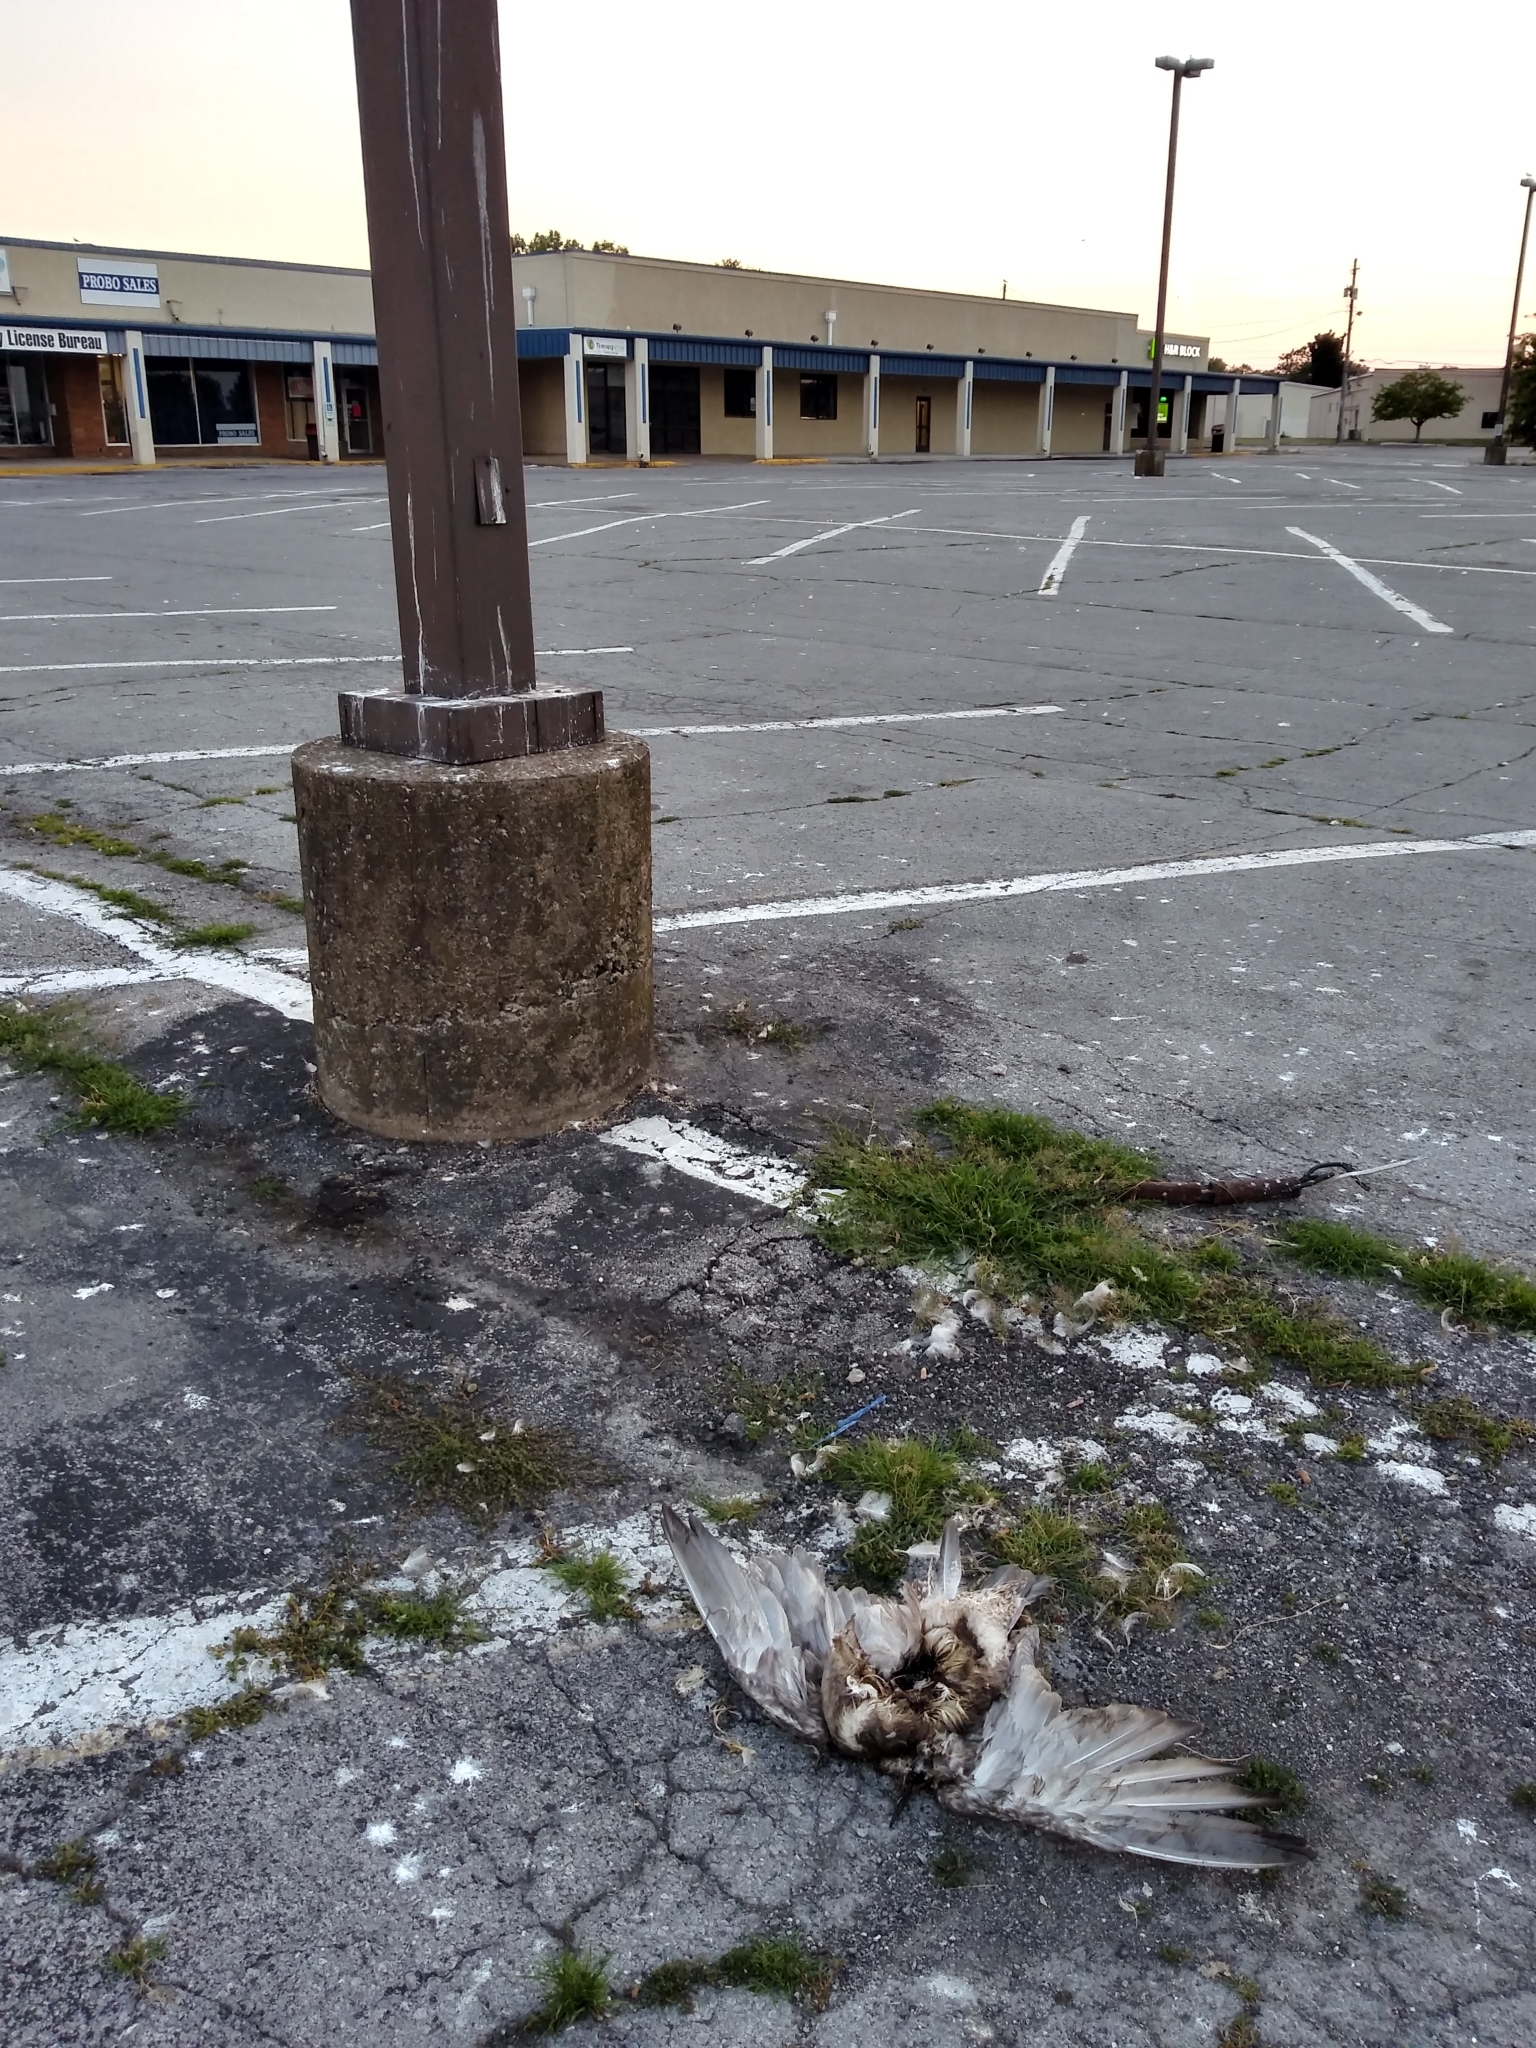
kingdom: Animalia
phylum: Chordata
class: Aves
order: Charadriiformes
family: Laridae
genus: Larus
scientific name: Larus argentatus
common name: Herring gull
